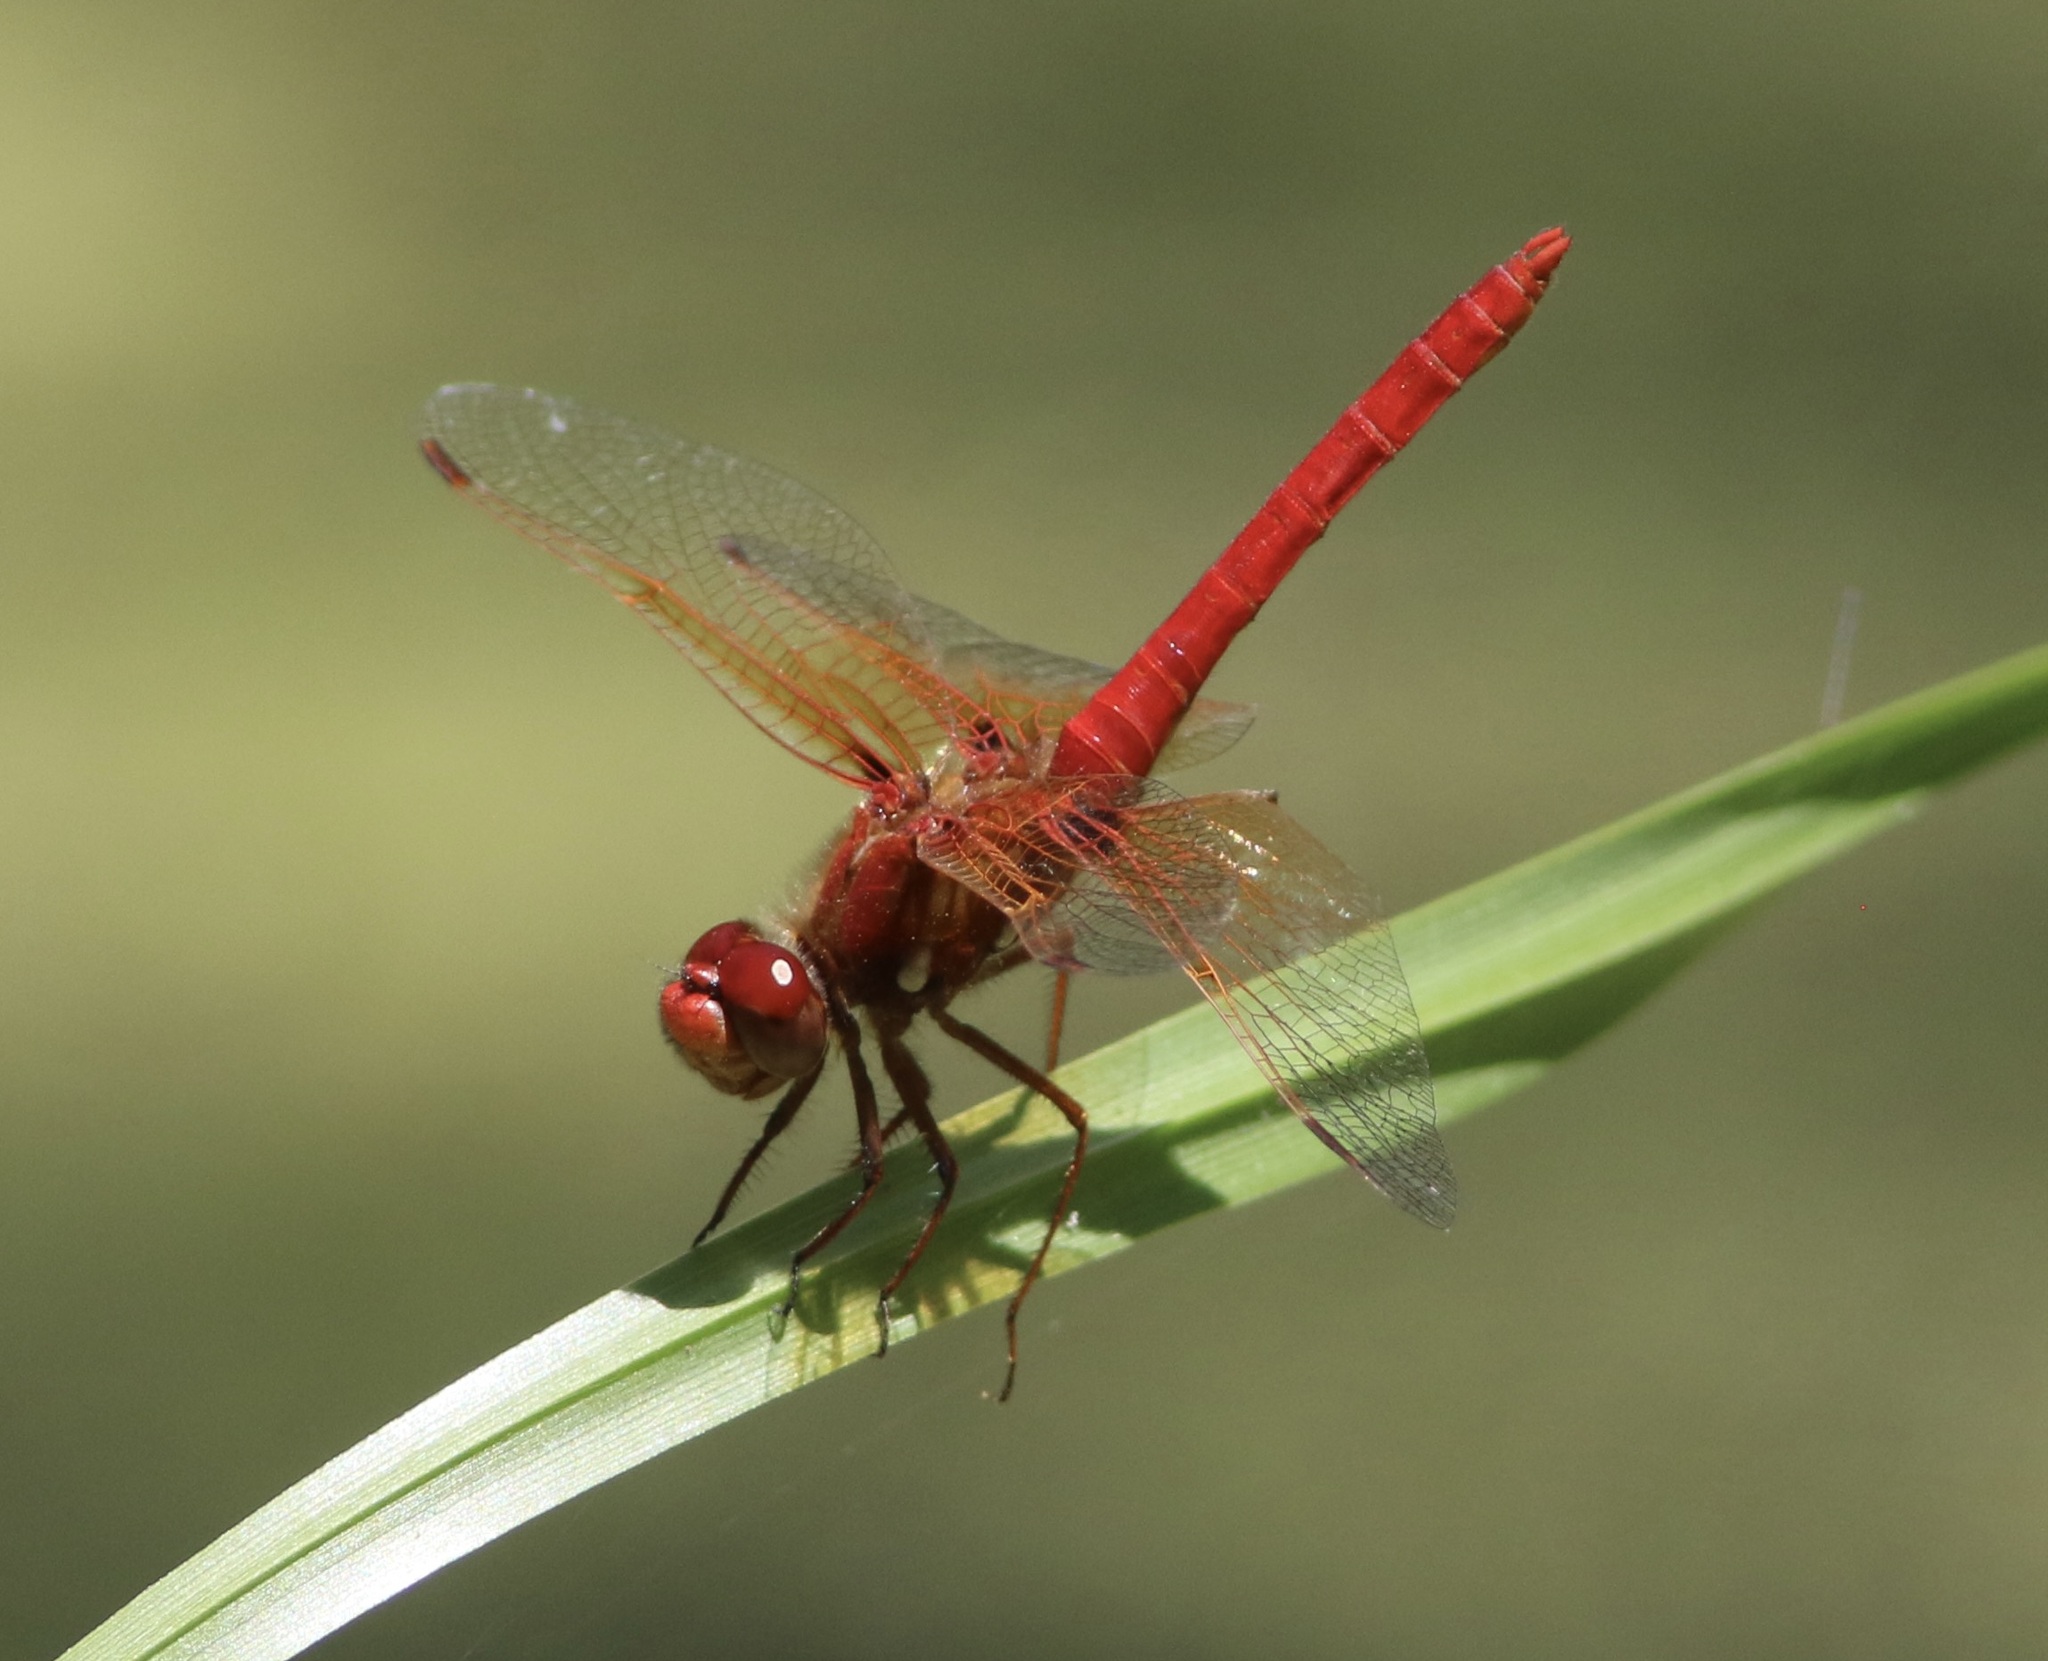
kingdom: Animalia
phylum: Arthropoda
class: Insecta
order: Odonata
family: Libellulidae
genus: Sympetrum
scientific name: Sympetrum illotum
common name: Cardinal meadowhawk
